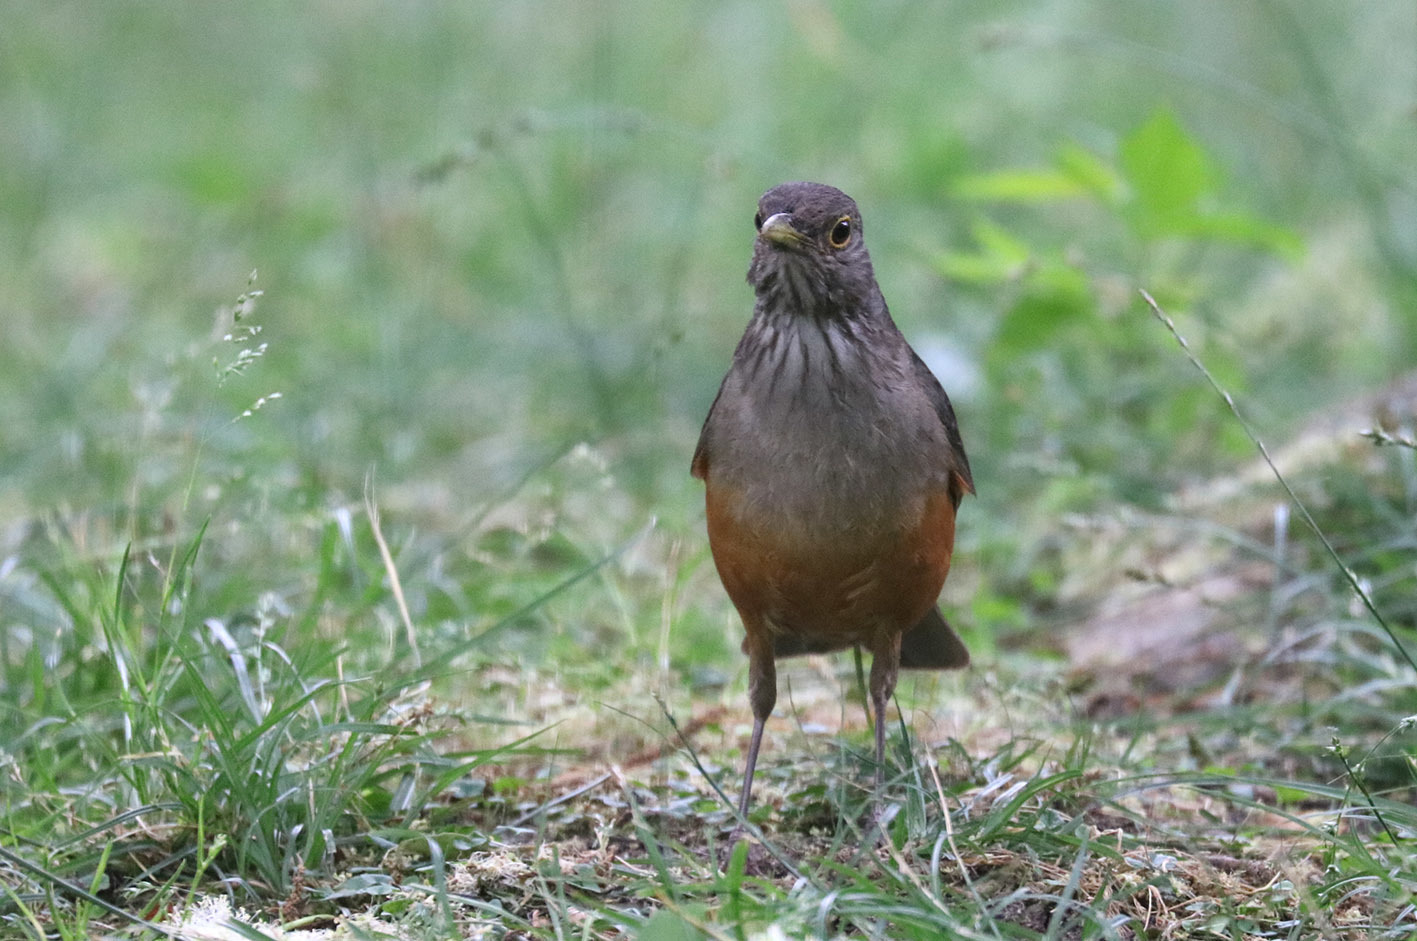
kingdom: Animalia
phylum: Chordata
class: Aves
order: Passeriformes
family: Turdidae
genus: Turdus
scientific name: Turdus rufiventris
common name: Rufous-bellied thrush
